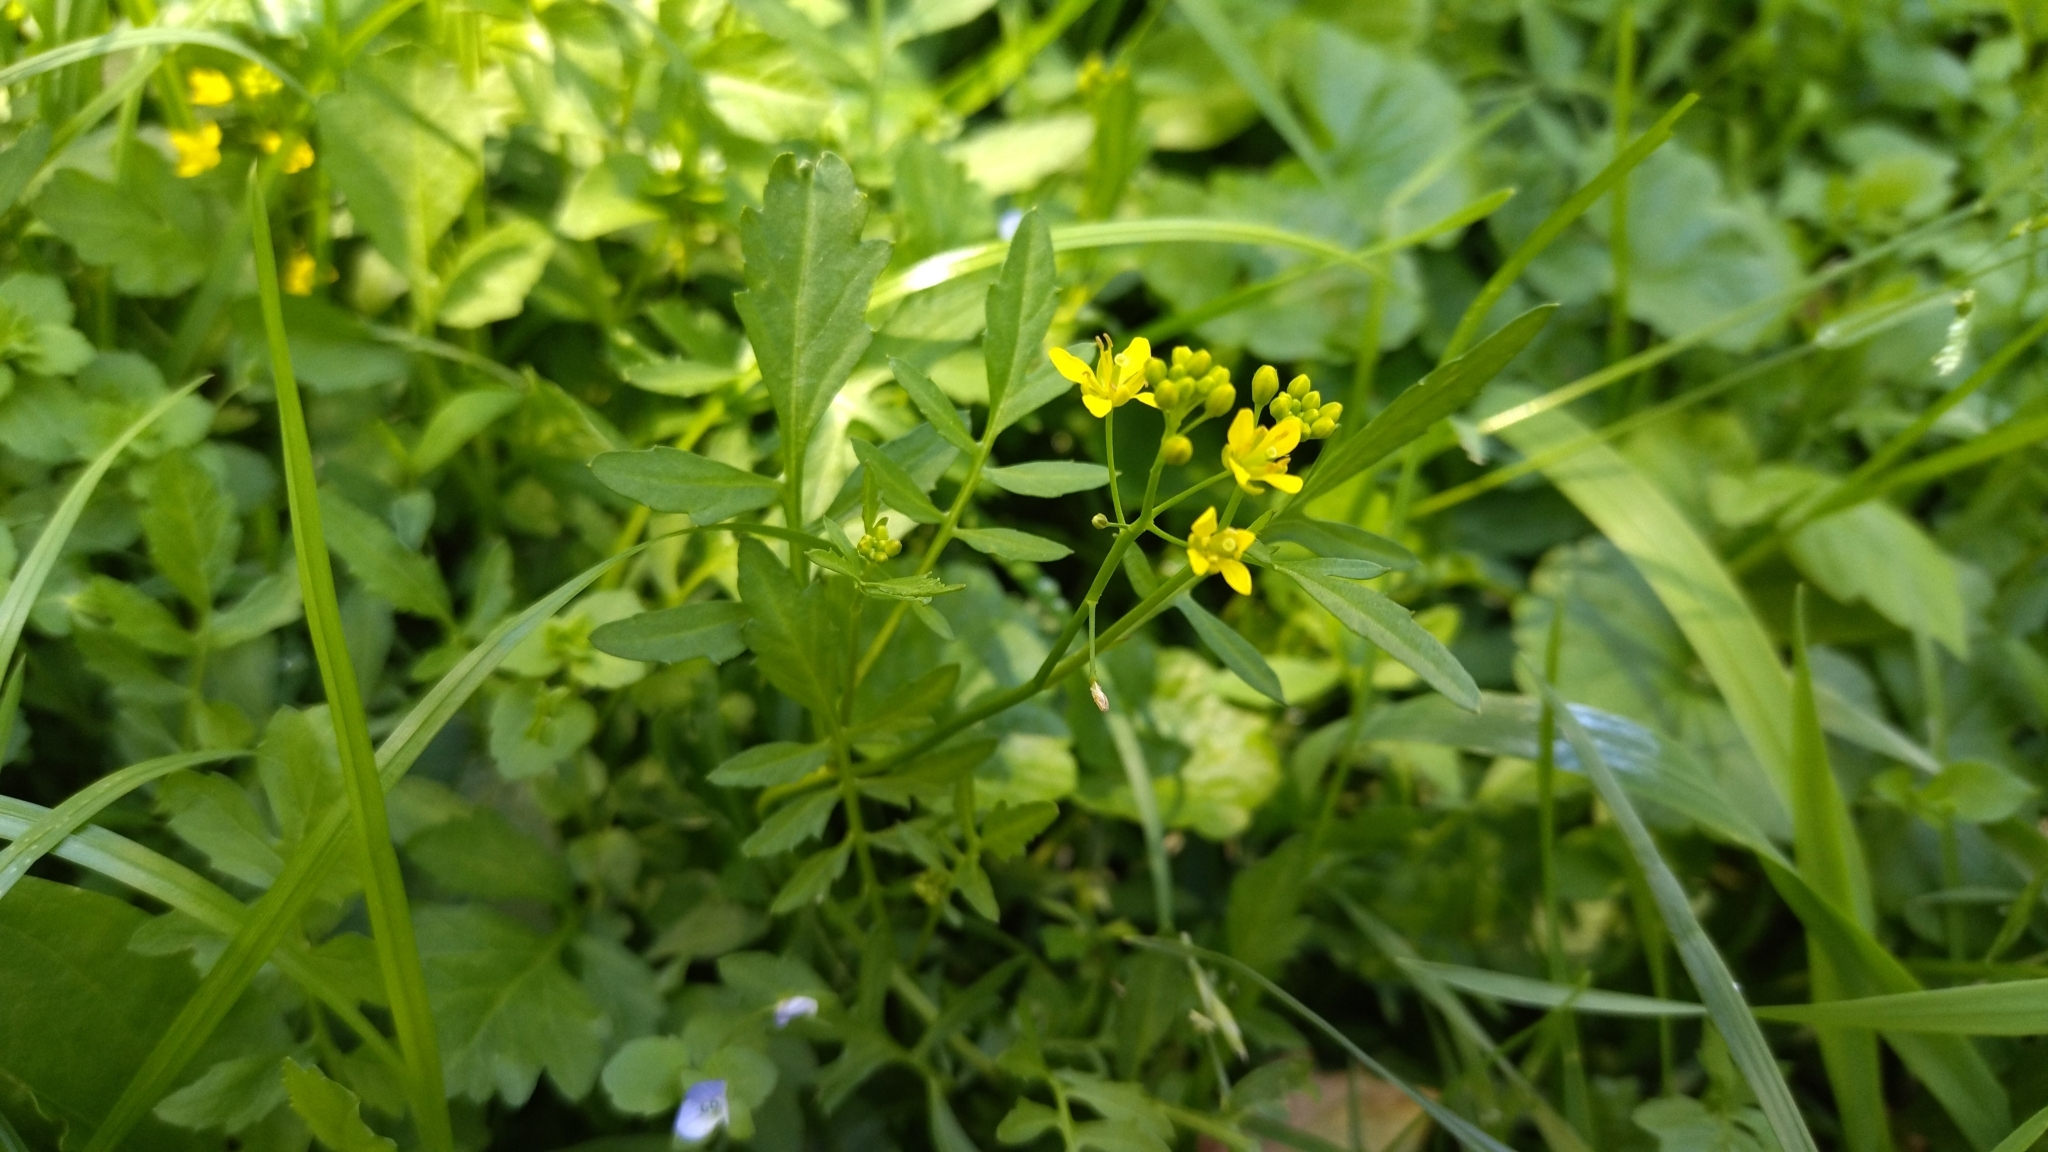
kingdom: Plantae
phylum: Tracheophyta
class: Magnoliopsida
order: Brassicales
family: Brassicaceae
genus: Rorippa
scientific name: Rorippa sylvestris
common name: Creeping yellowcress
